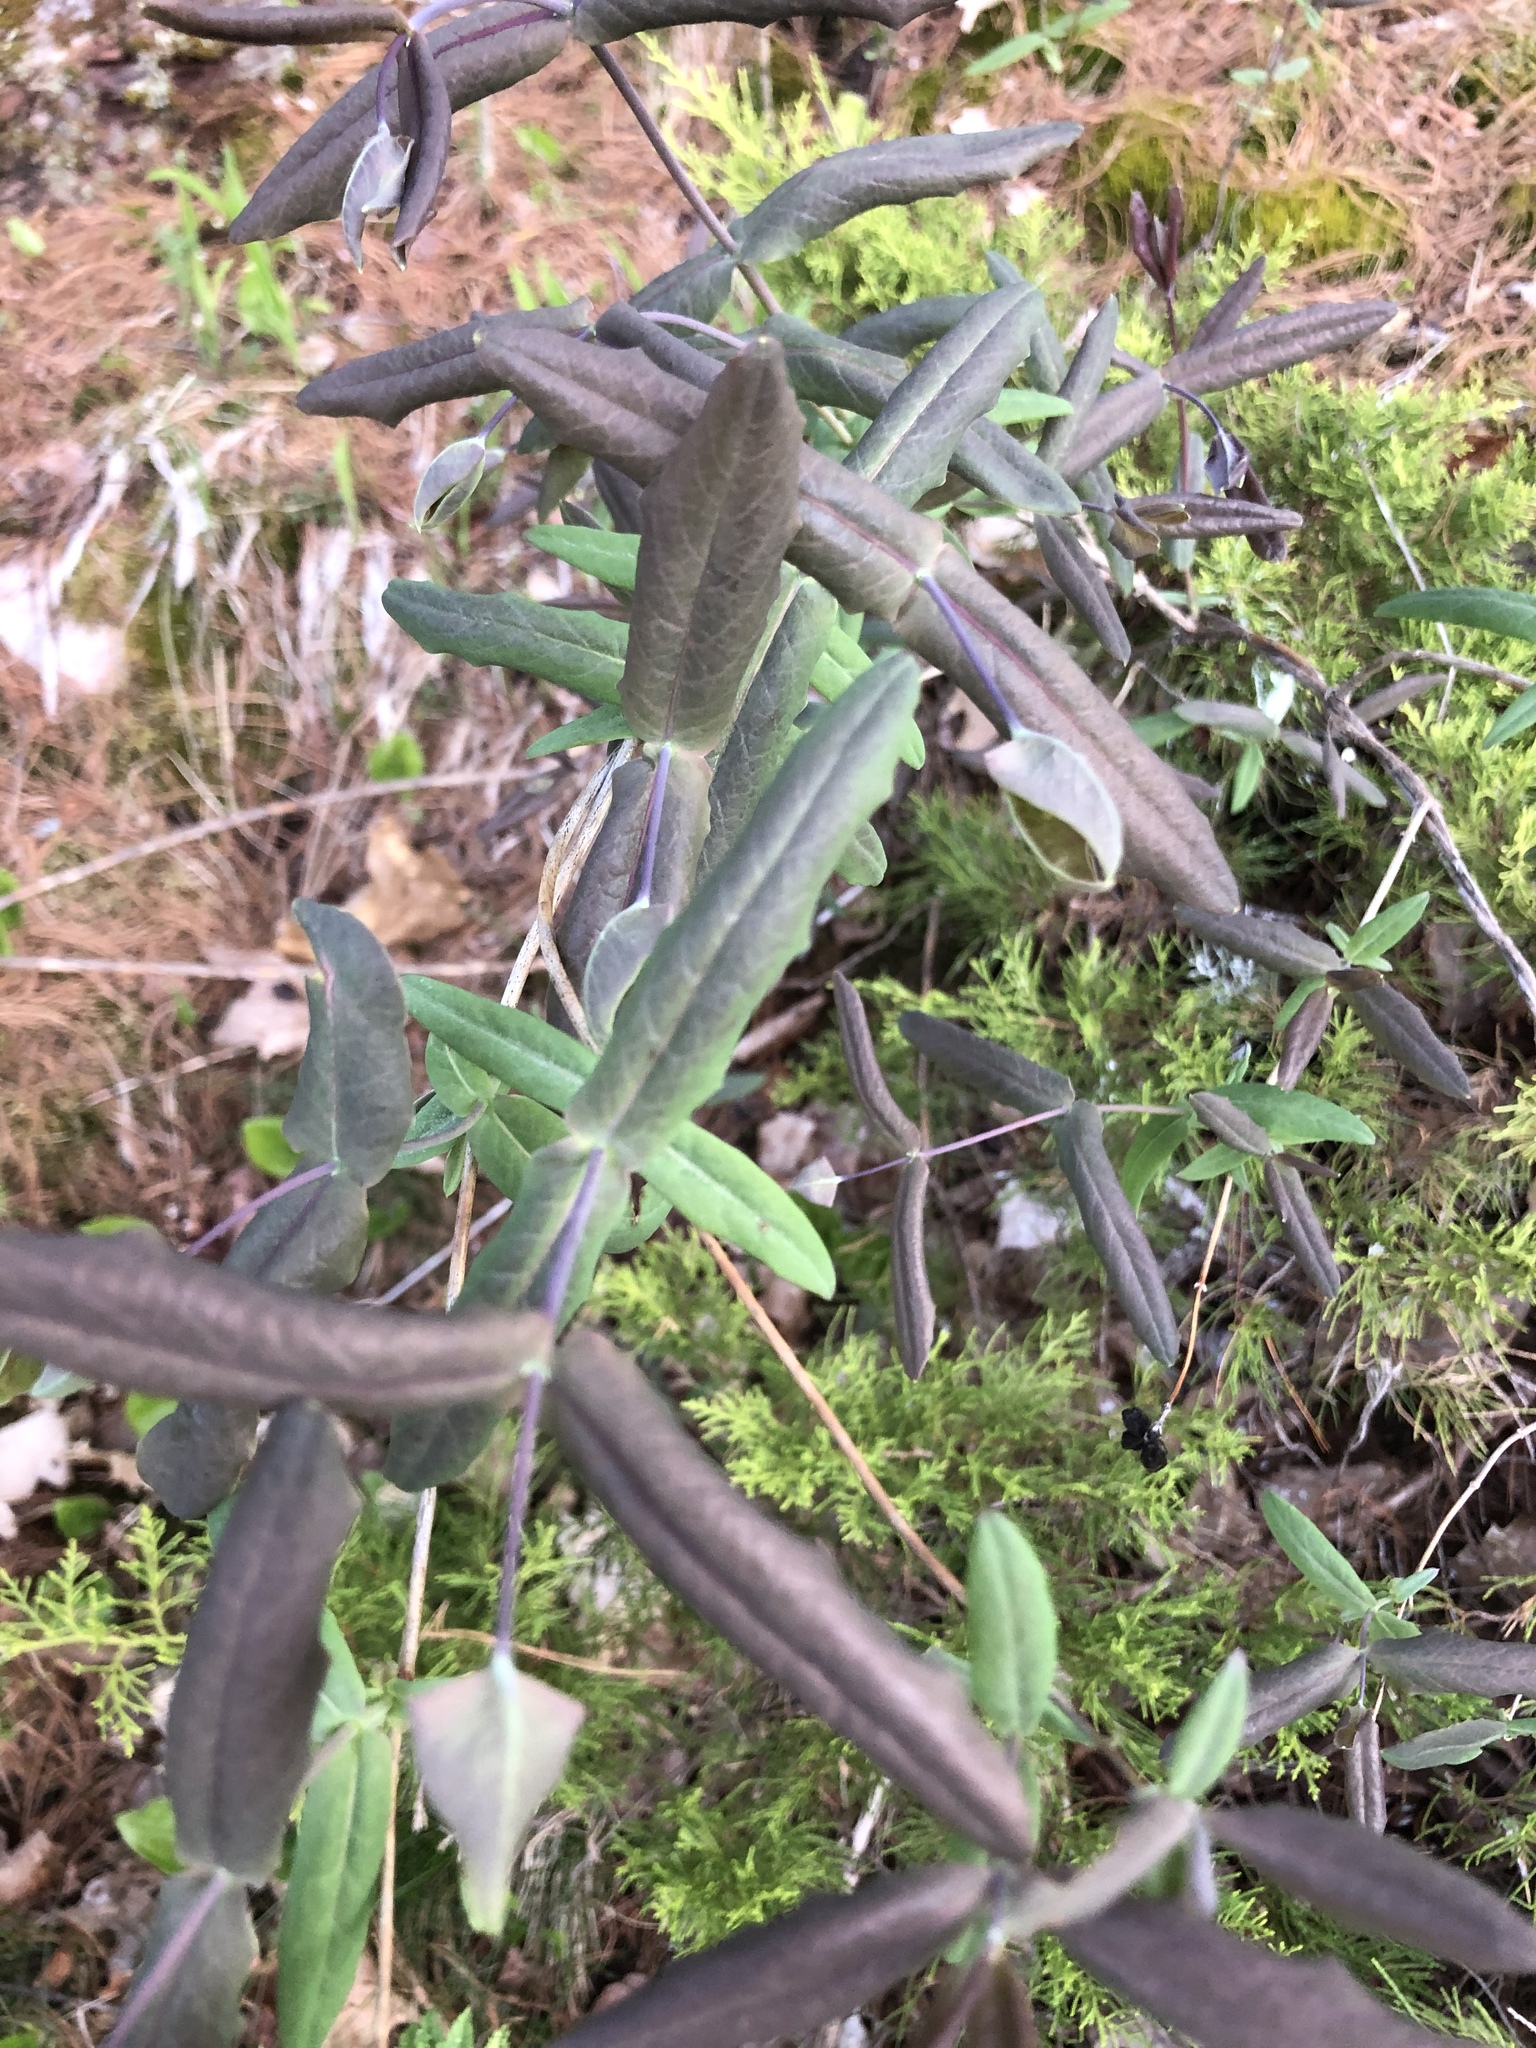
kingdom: Plantae
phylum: Tracheophyta
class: Magnoliopsida
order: Dipsacales
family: Caprifoliaceae
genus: Lonicera
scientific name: Lonicera dioica
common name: Limber honeysuckle
